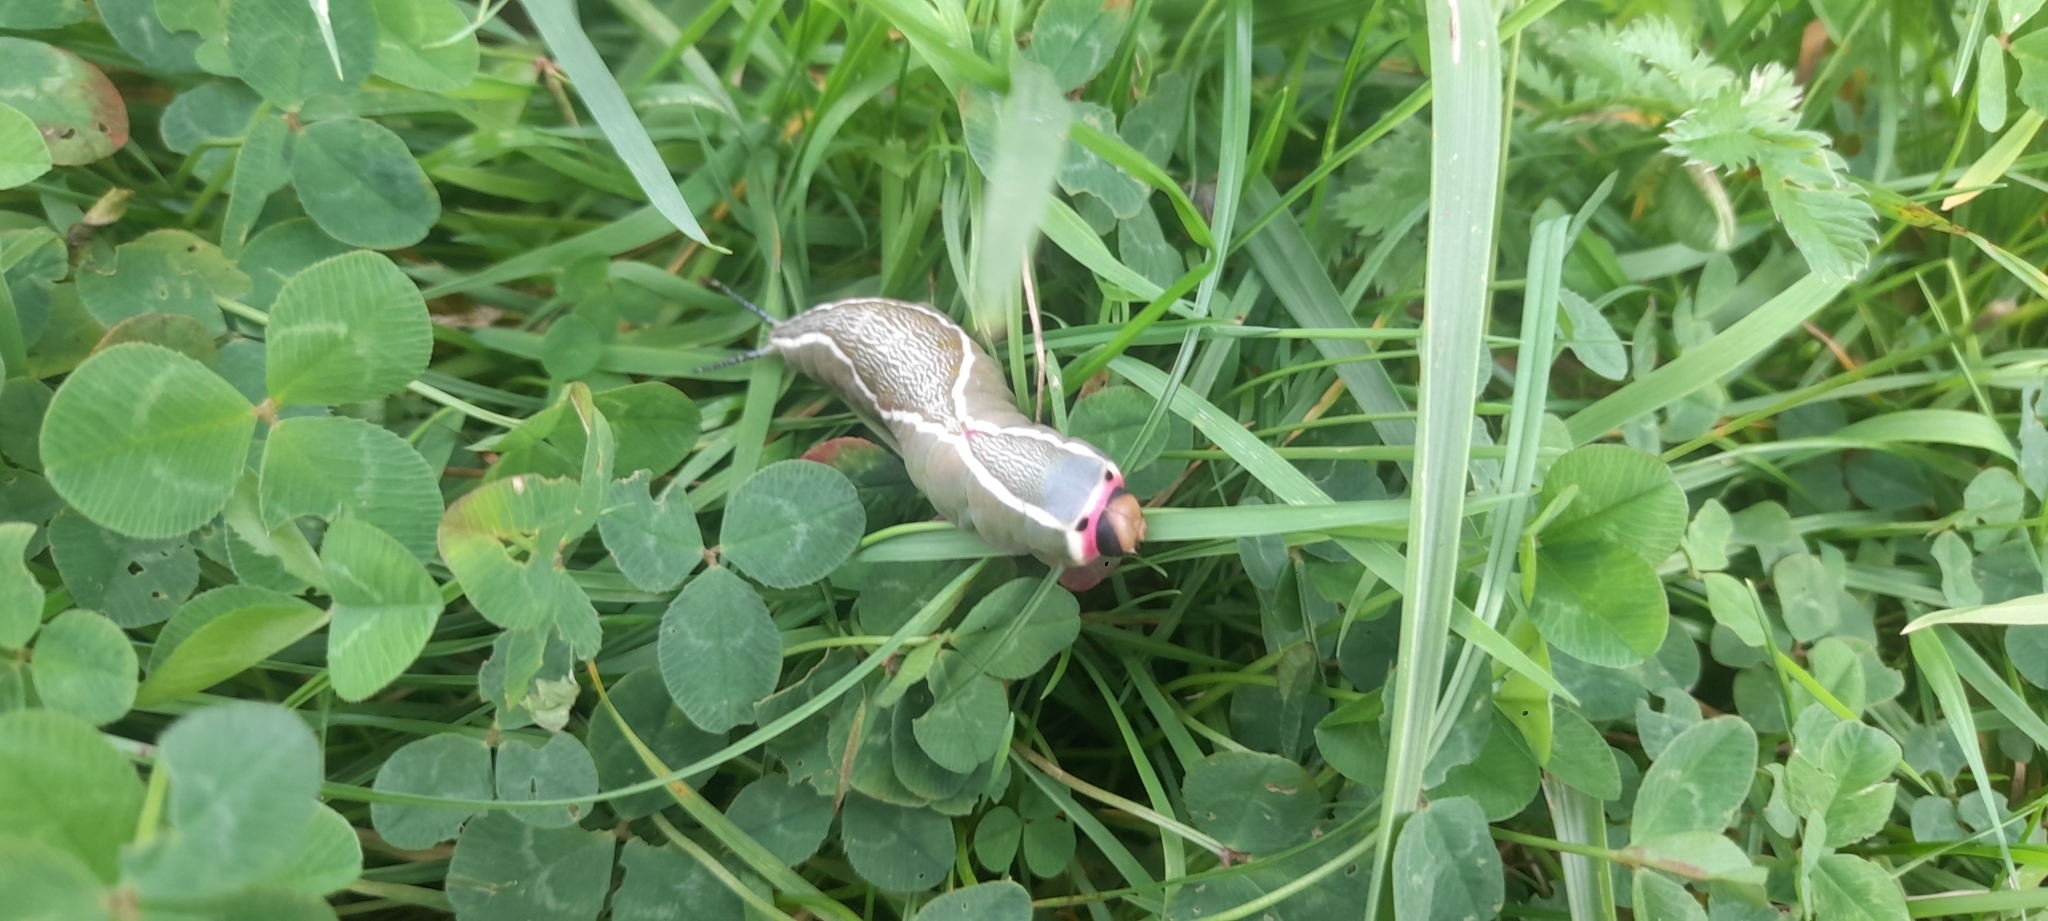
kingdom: Animalia
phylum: Arthropoda
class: Insecta
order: Lepidoptera
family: Notodontidae
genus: Cerura
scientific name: Cerura vinula
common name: Puss moth
